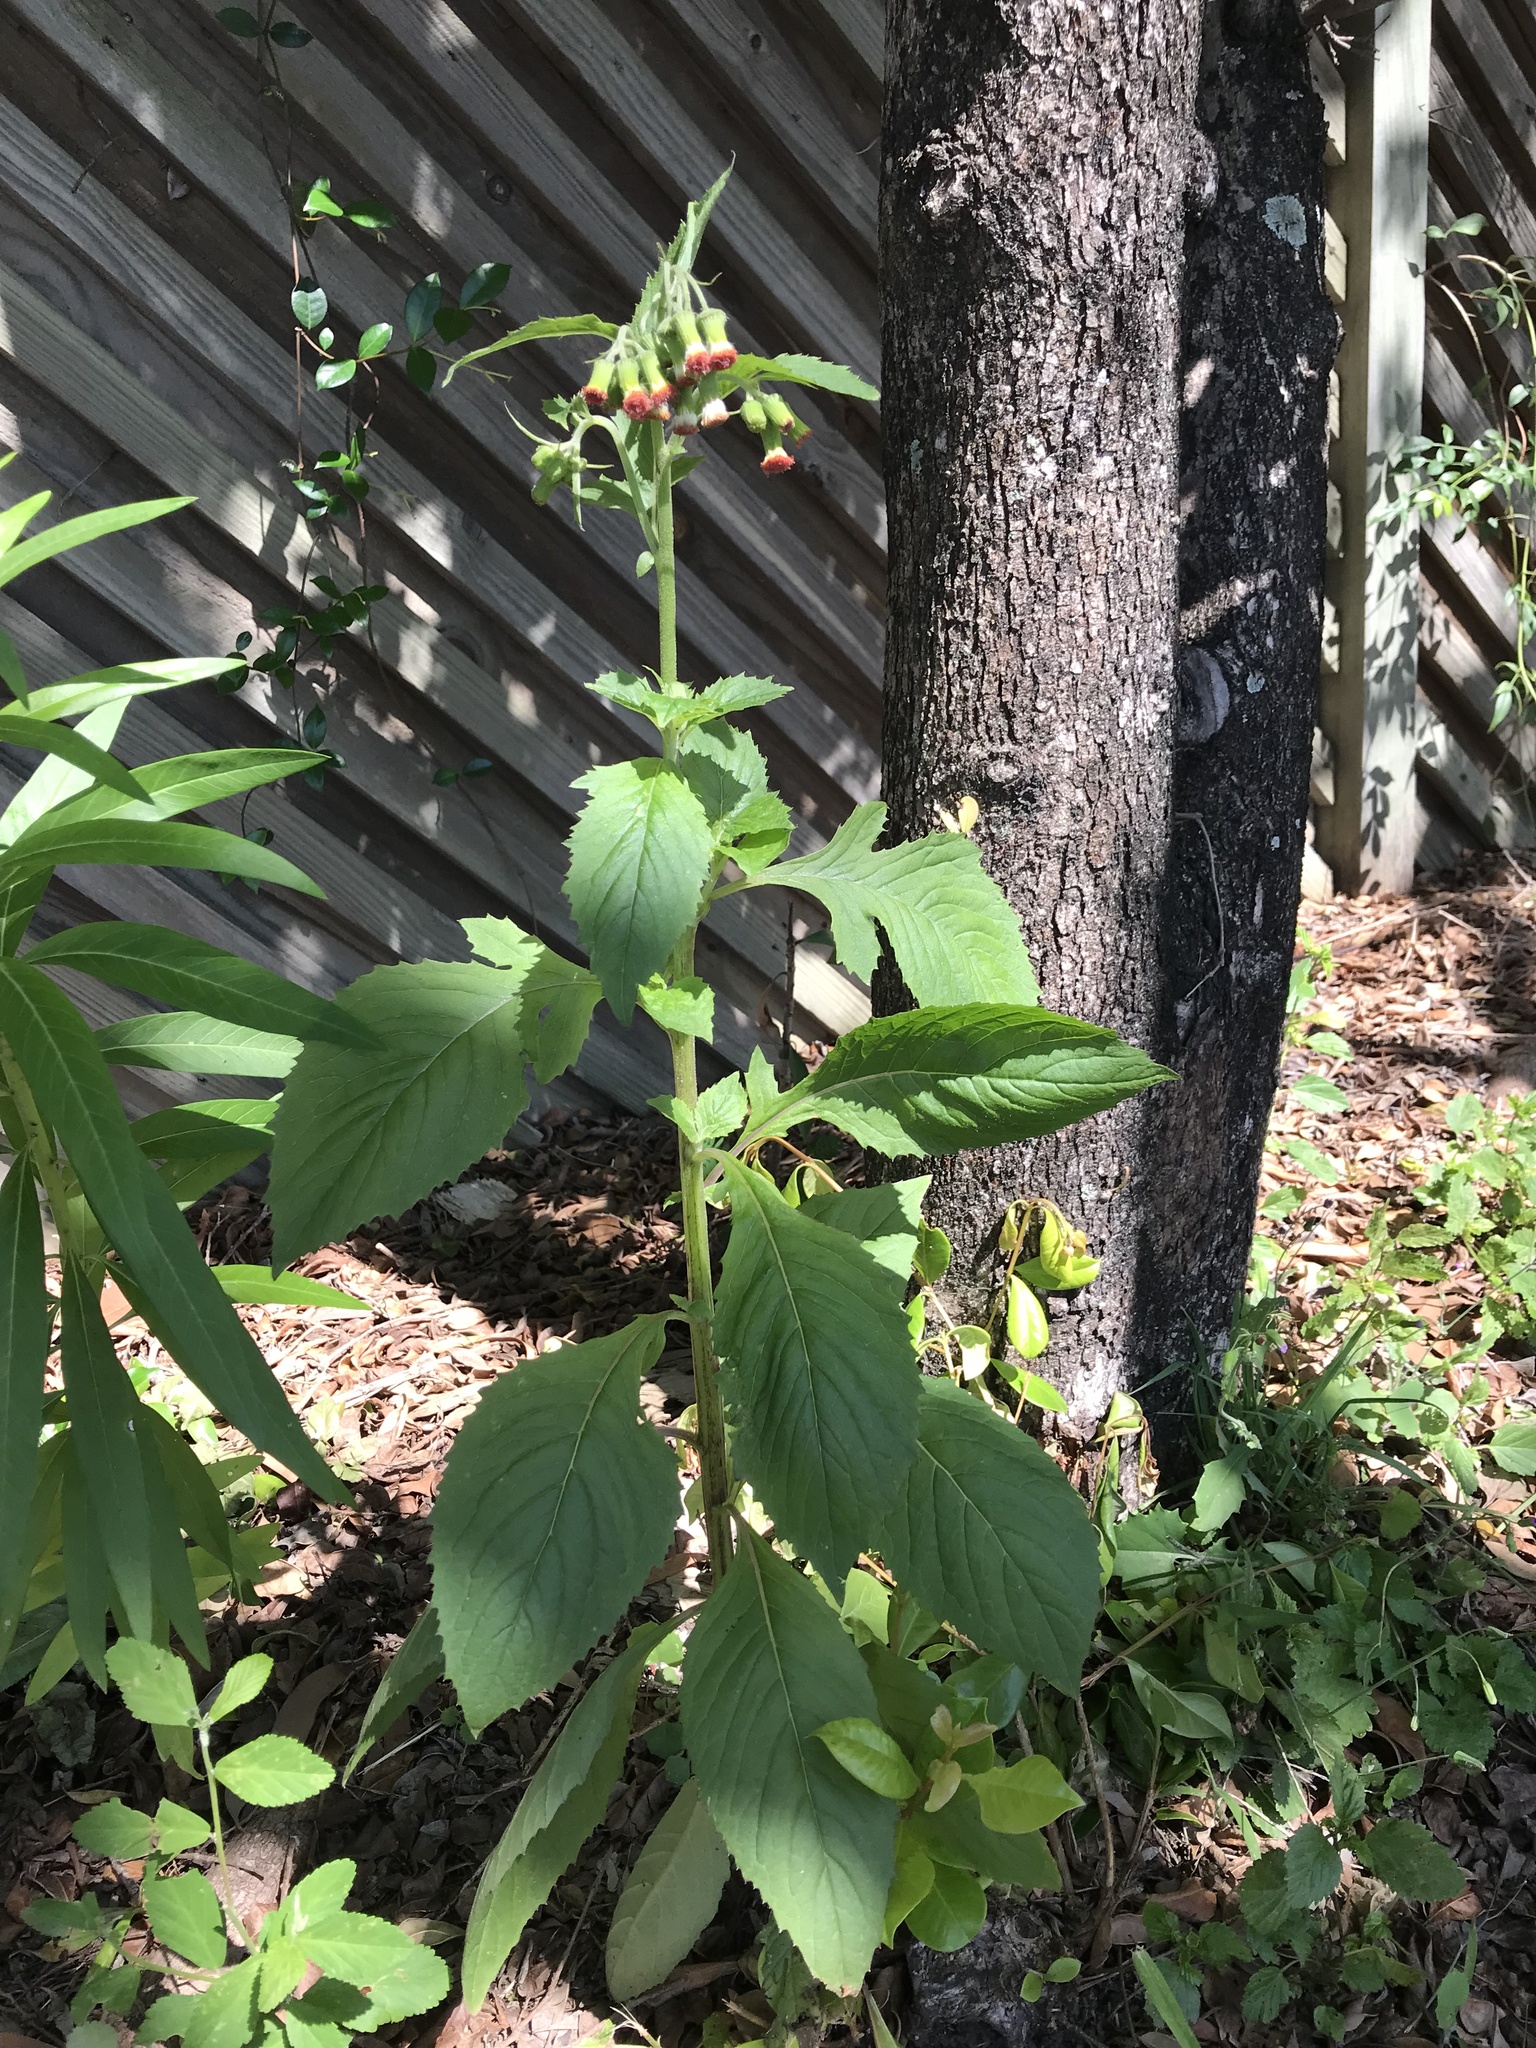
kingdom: Plantae
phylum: Tracheophyta
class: Magnoliopsida
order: Asterales
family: Asteraceae
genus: Crassocephalum
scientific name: Crassocephalum crepidioides
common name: Redflower ragleaf
